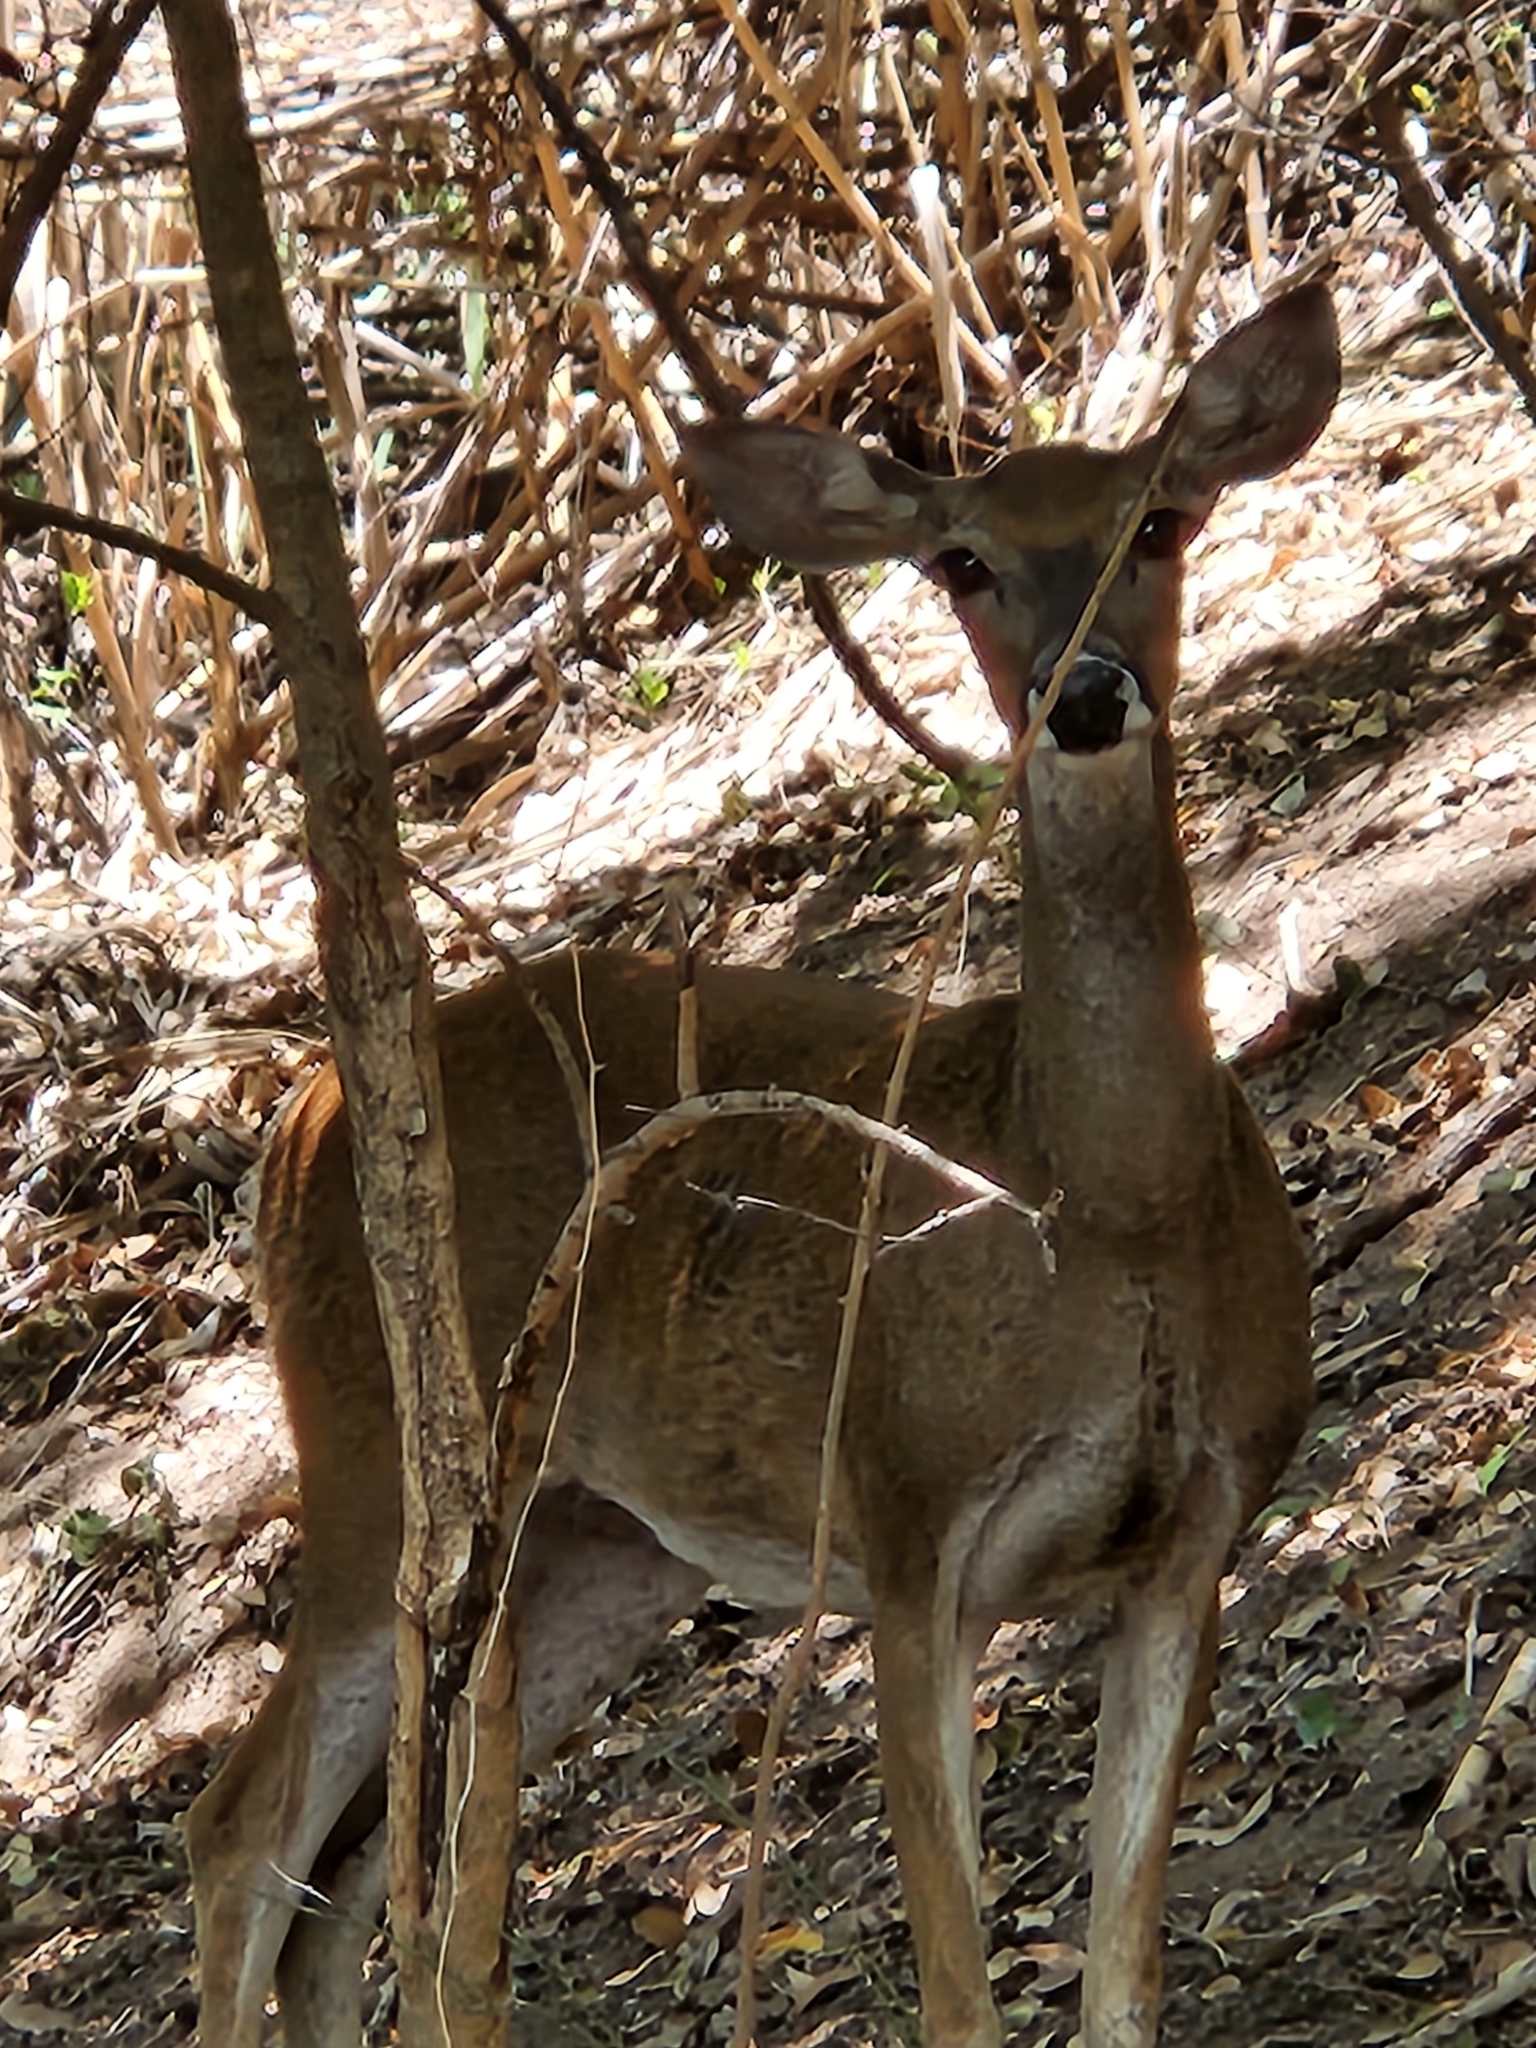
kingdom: Animalia
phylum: Chordata
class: Mammalia
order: Artiodactyla
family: Cervidae
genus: Odocoileus
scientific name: Odocoileus virginianus
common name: White-tailed deer
